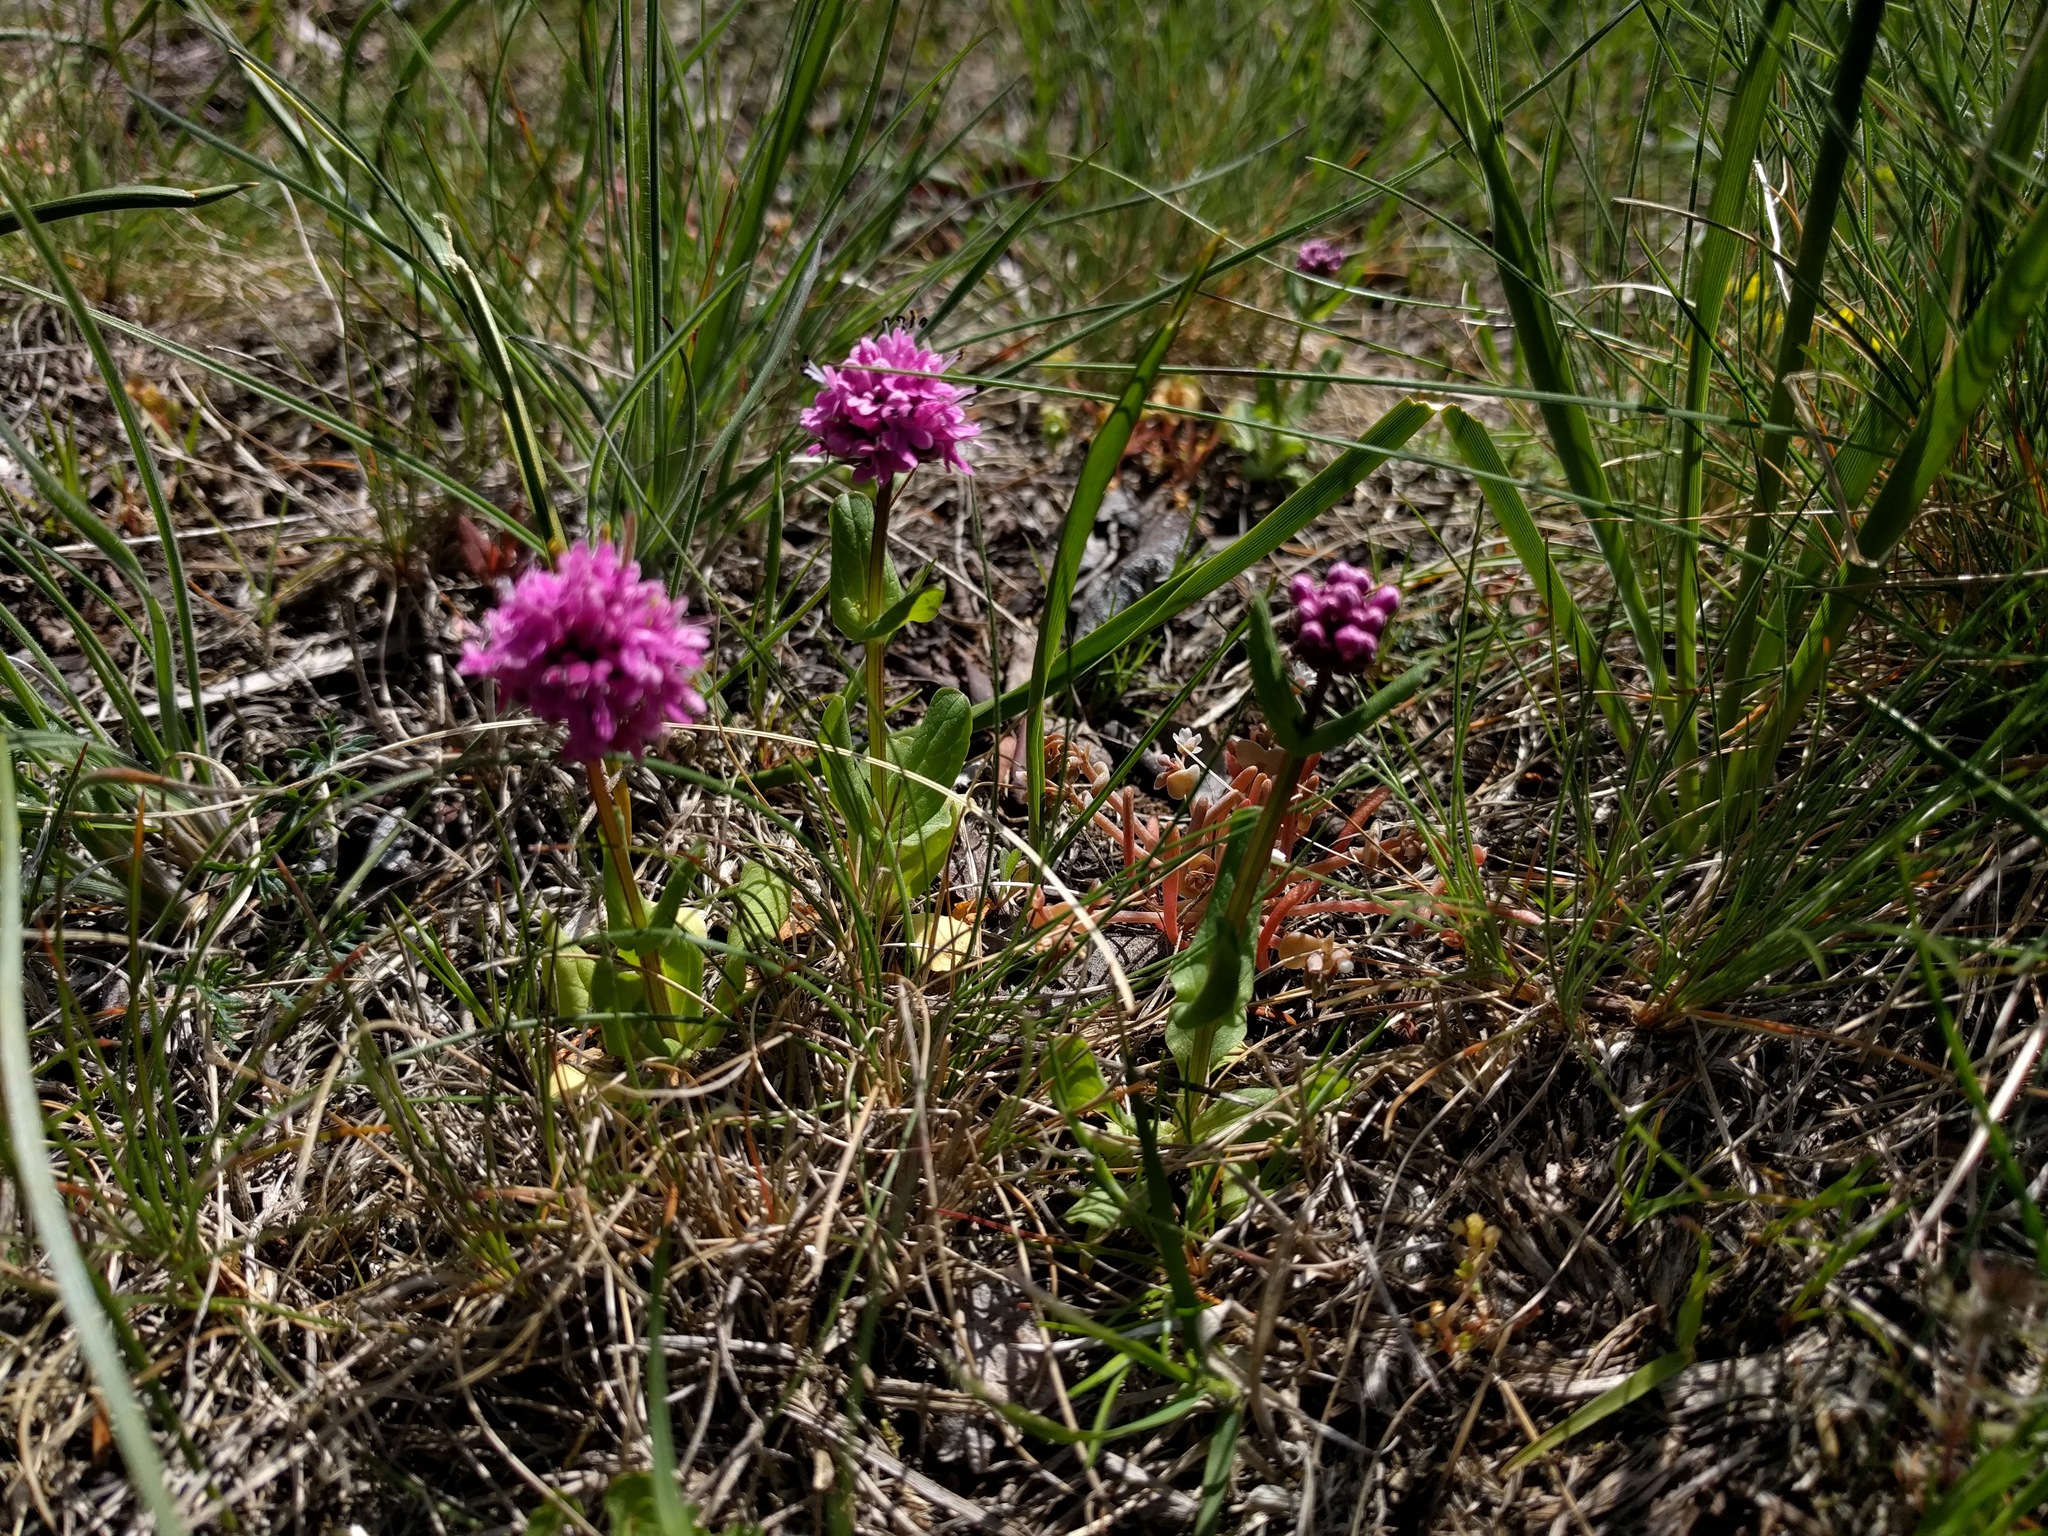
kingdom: Plantae
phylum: Tracheophyta
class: Magnoliopsida
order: Dipsacales
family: Caprifoliaceae
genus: Plectritis
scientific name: Plectritis congesta
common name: Pink plectritis
